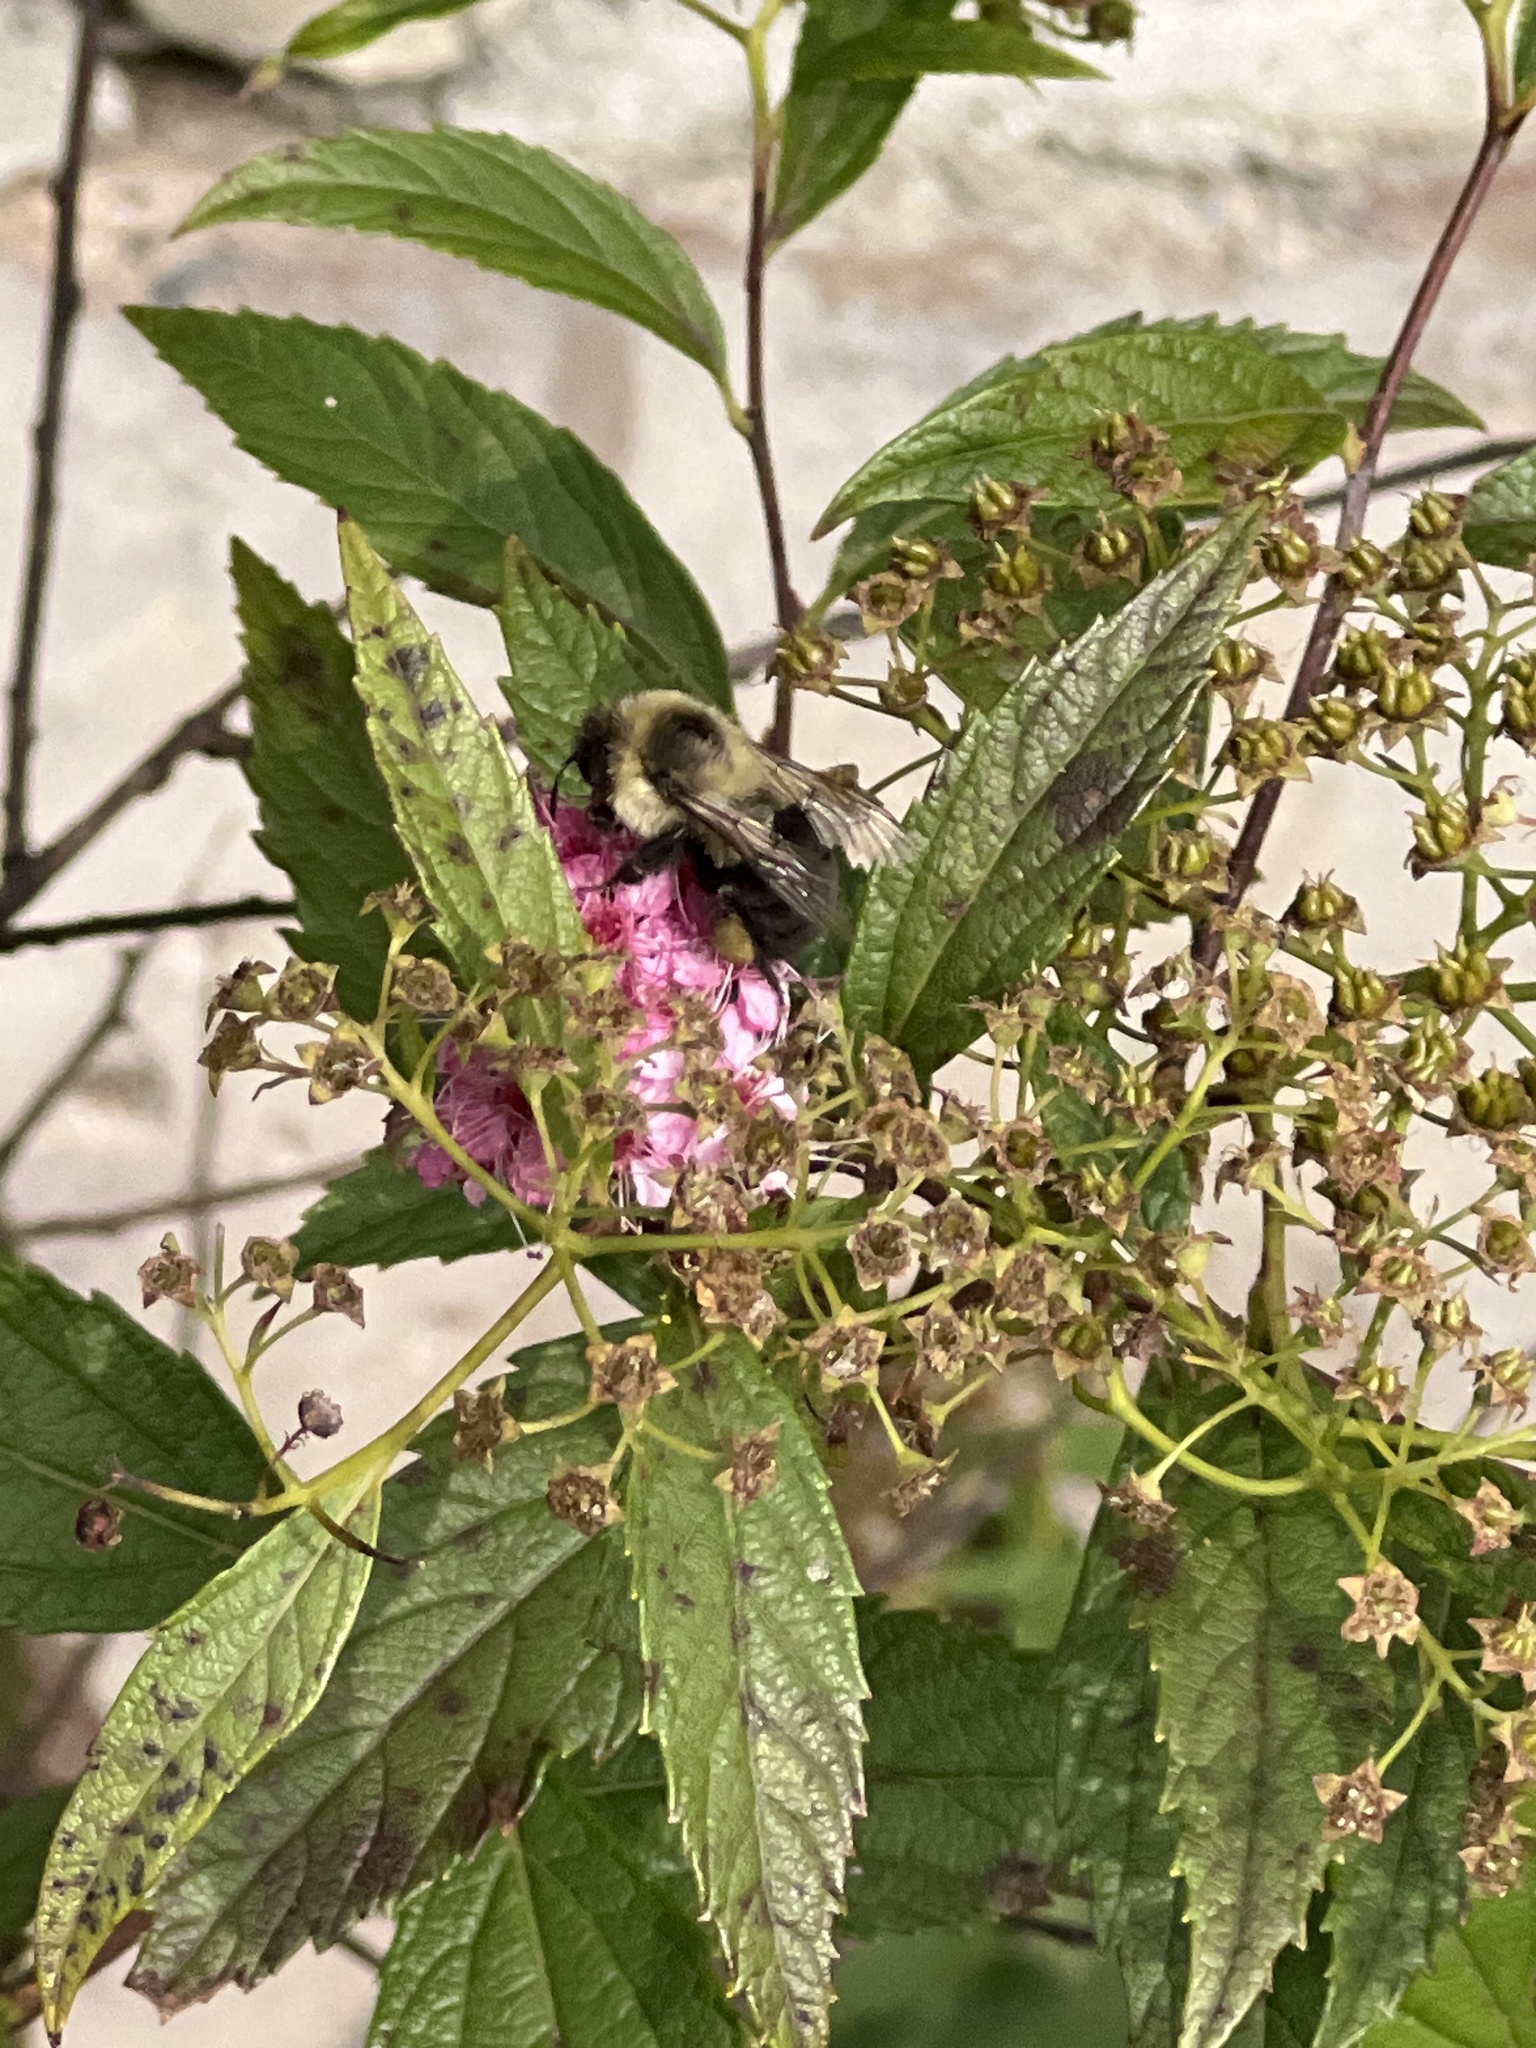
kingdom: Animalia
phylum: Arthropoda
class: Insecta
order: Hymenoptera
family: Apidae
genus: Bombus
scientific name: Bombus impatiens
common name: Common eastern bumble bee
